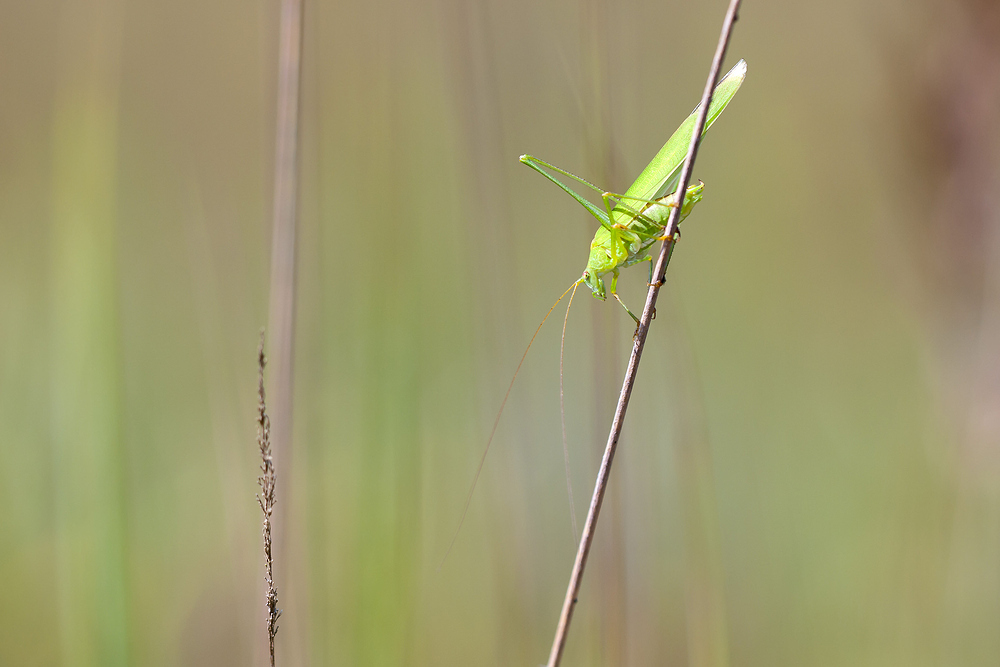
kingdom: Animalia
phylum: Arthropoda
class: Insecta
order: Orthoptera
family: Tettigoniidae
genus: Phaneroptera
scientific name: Phaneroptera falcata
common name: Sickle-bearing bush-cricket
